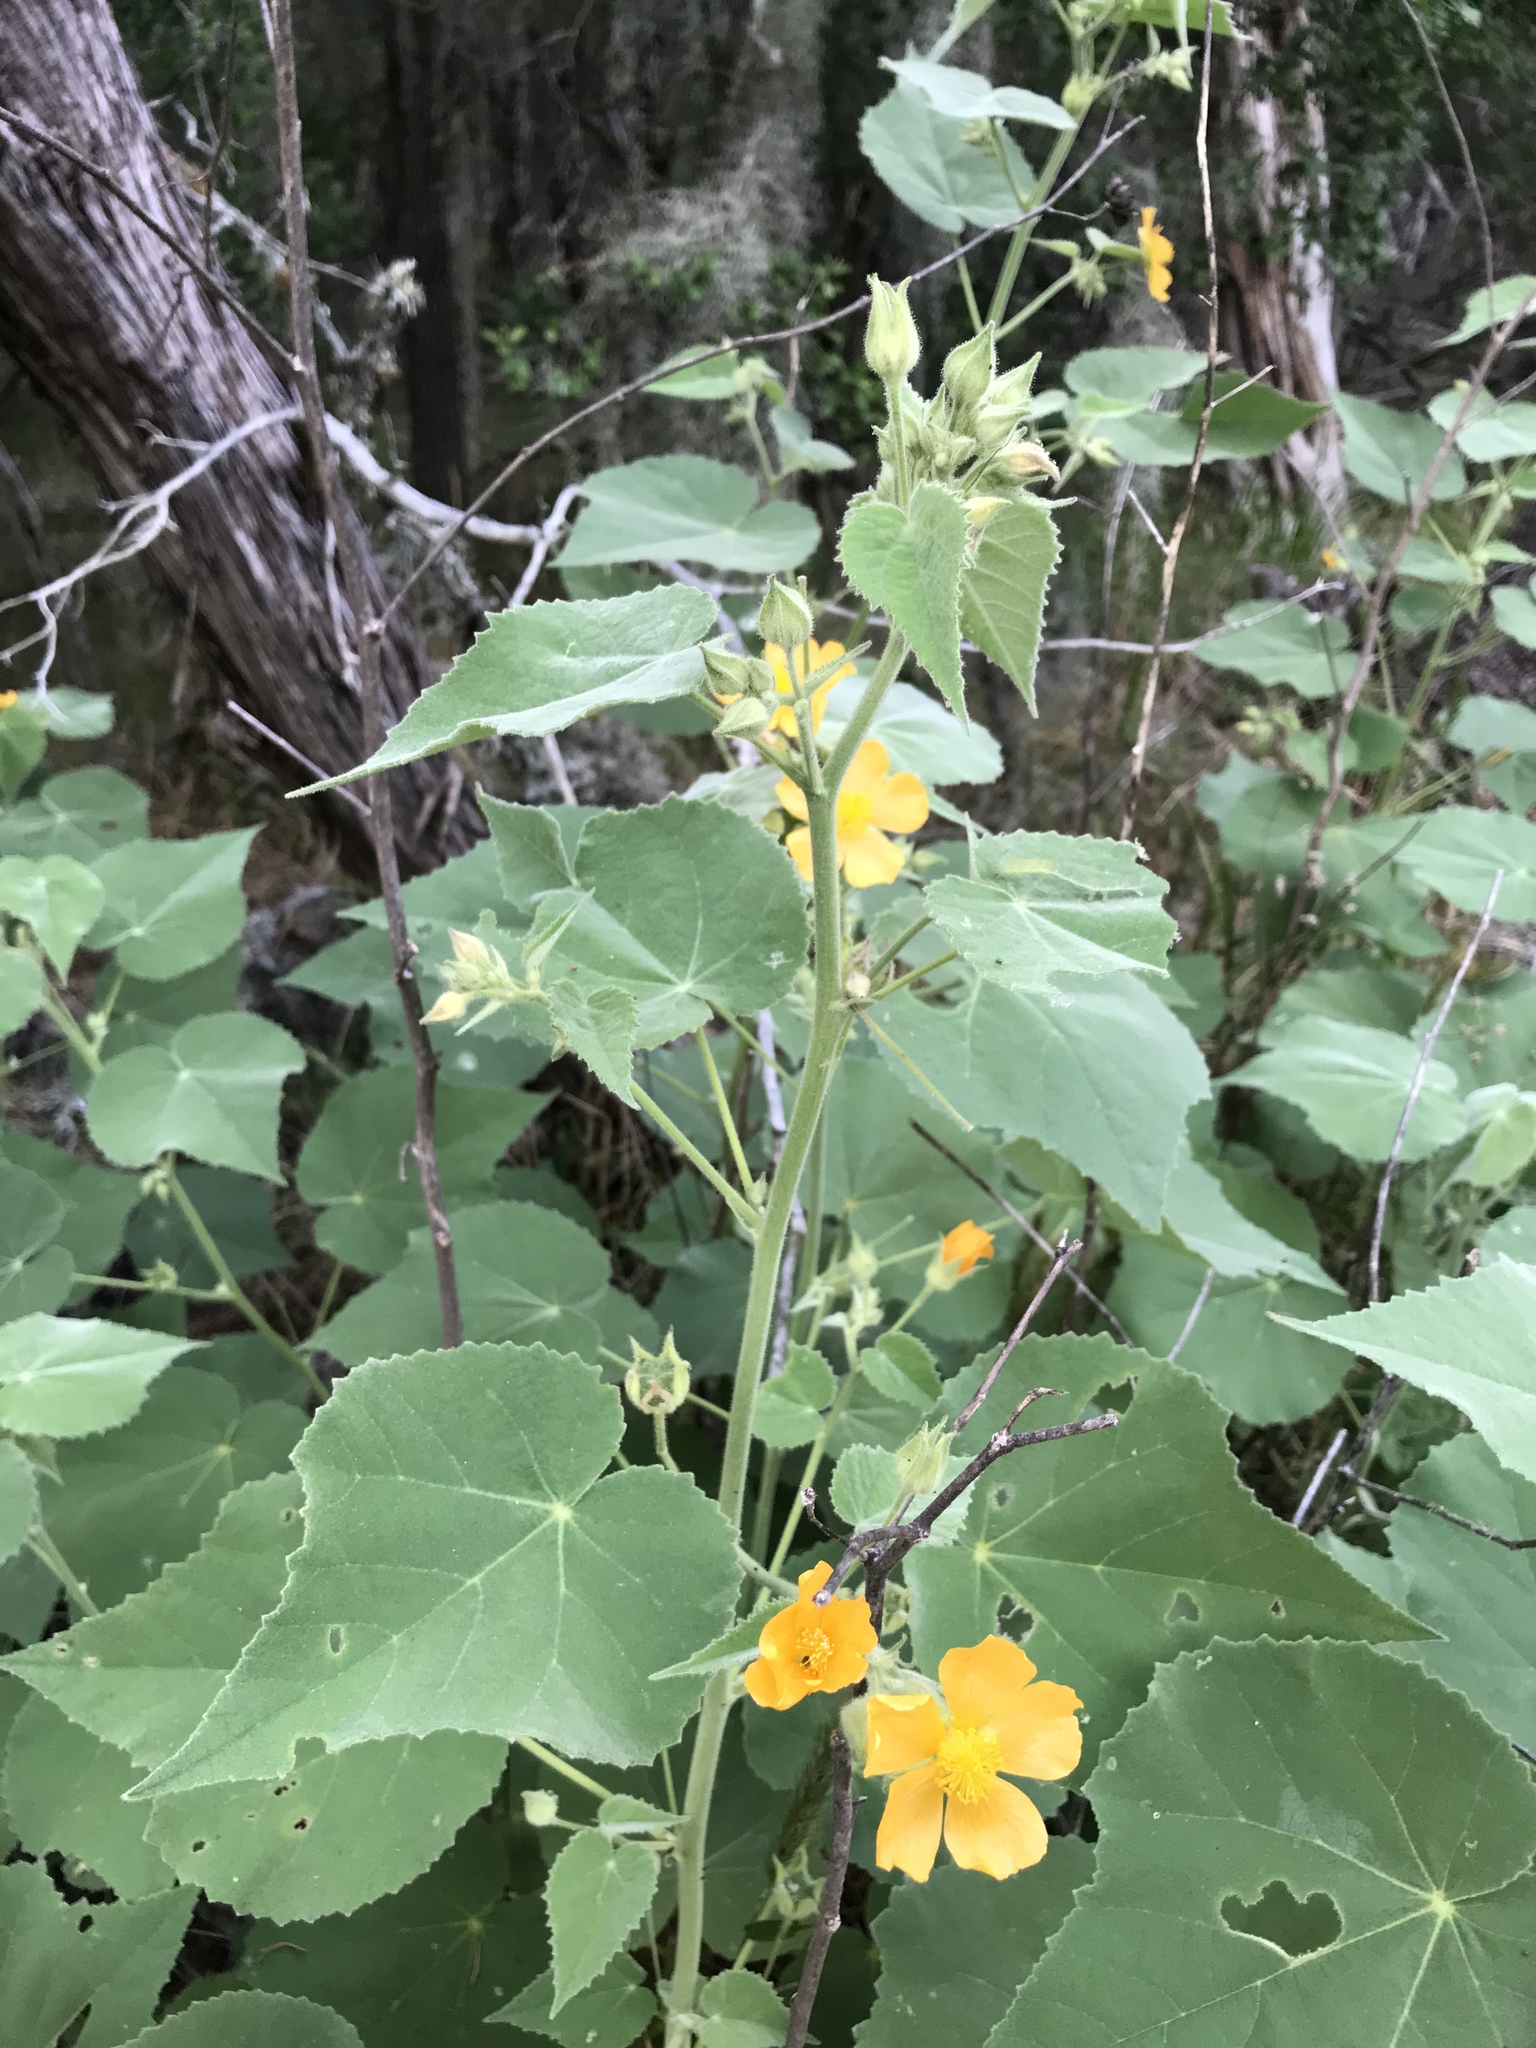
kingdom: Plantae
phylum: Tracheophyta
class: Magnoliopsida
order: Malvales
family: Malvaceae
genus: Allowissadula
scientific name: Allowissadula holosericea
